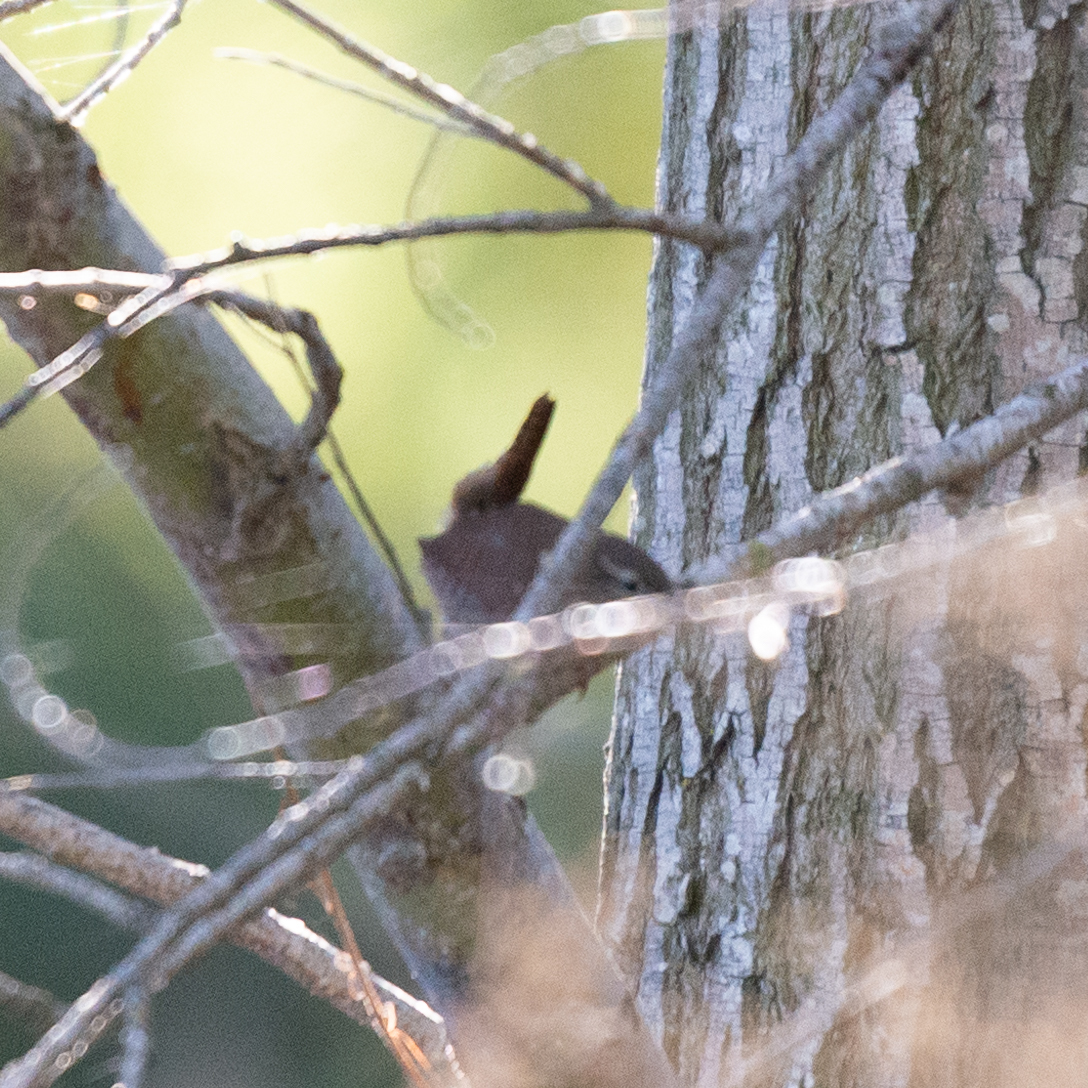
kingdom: Animalia
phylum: Chordata
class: Aves
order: Passeriformes
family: Troglodytidae
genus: Troglodytes
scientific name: Troglodytes troglodytes
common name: Eurasian wren
